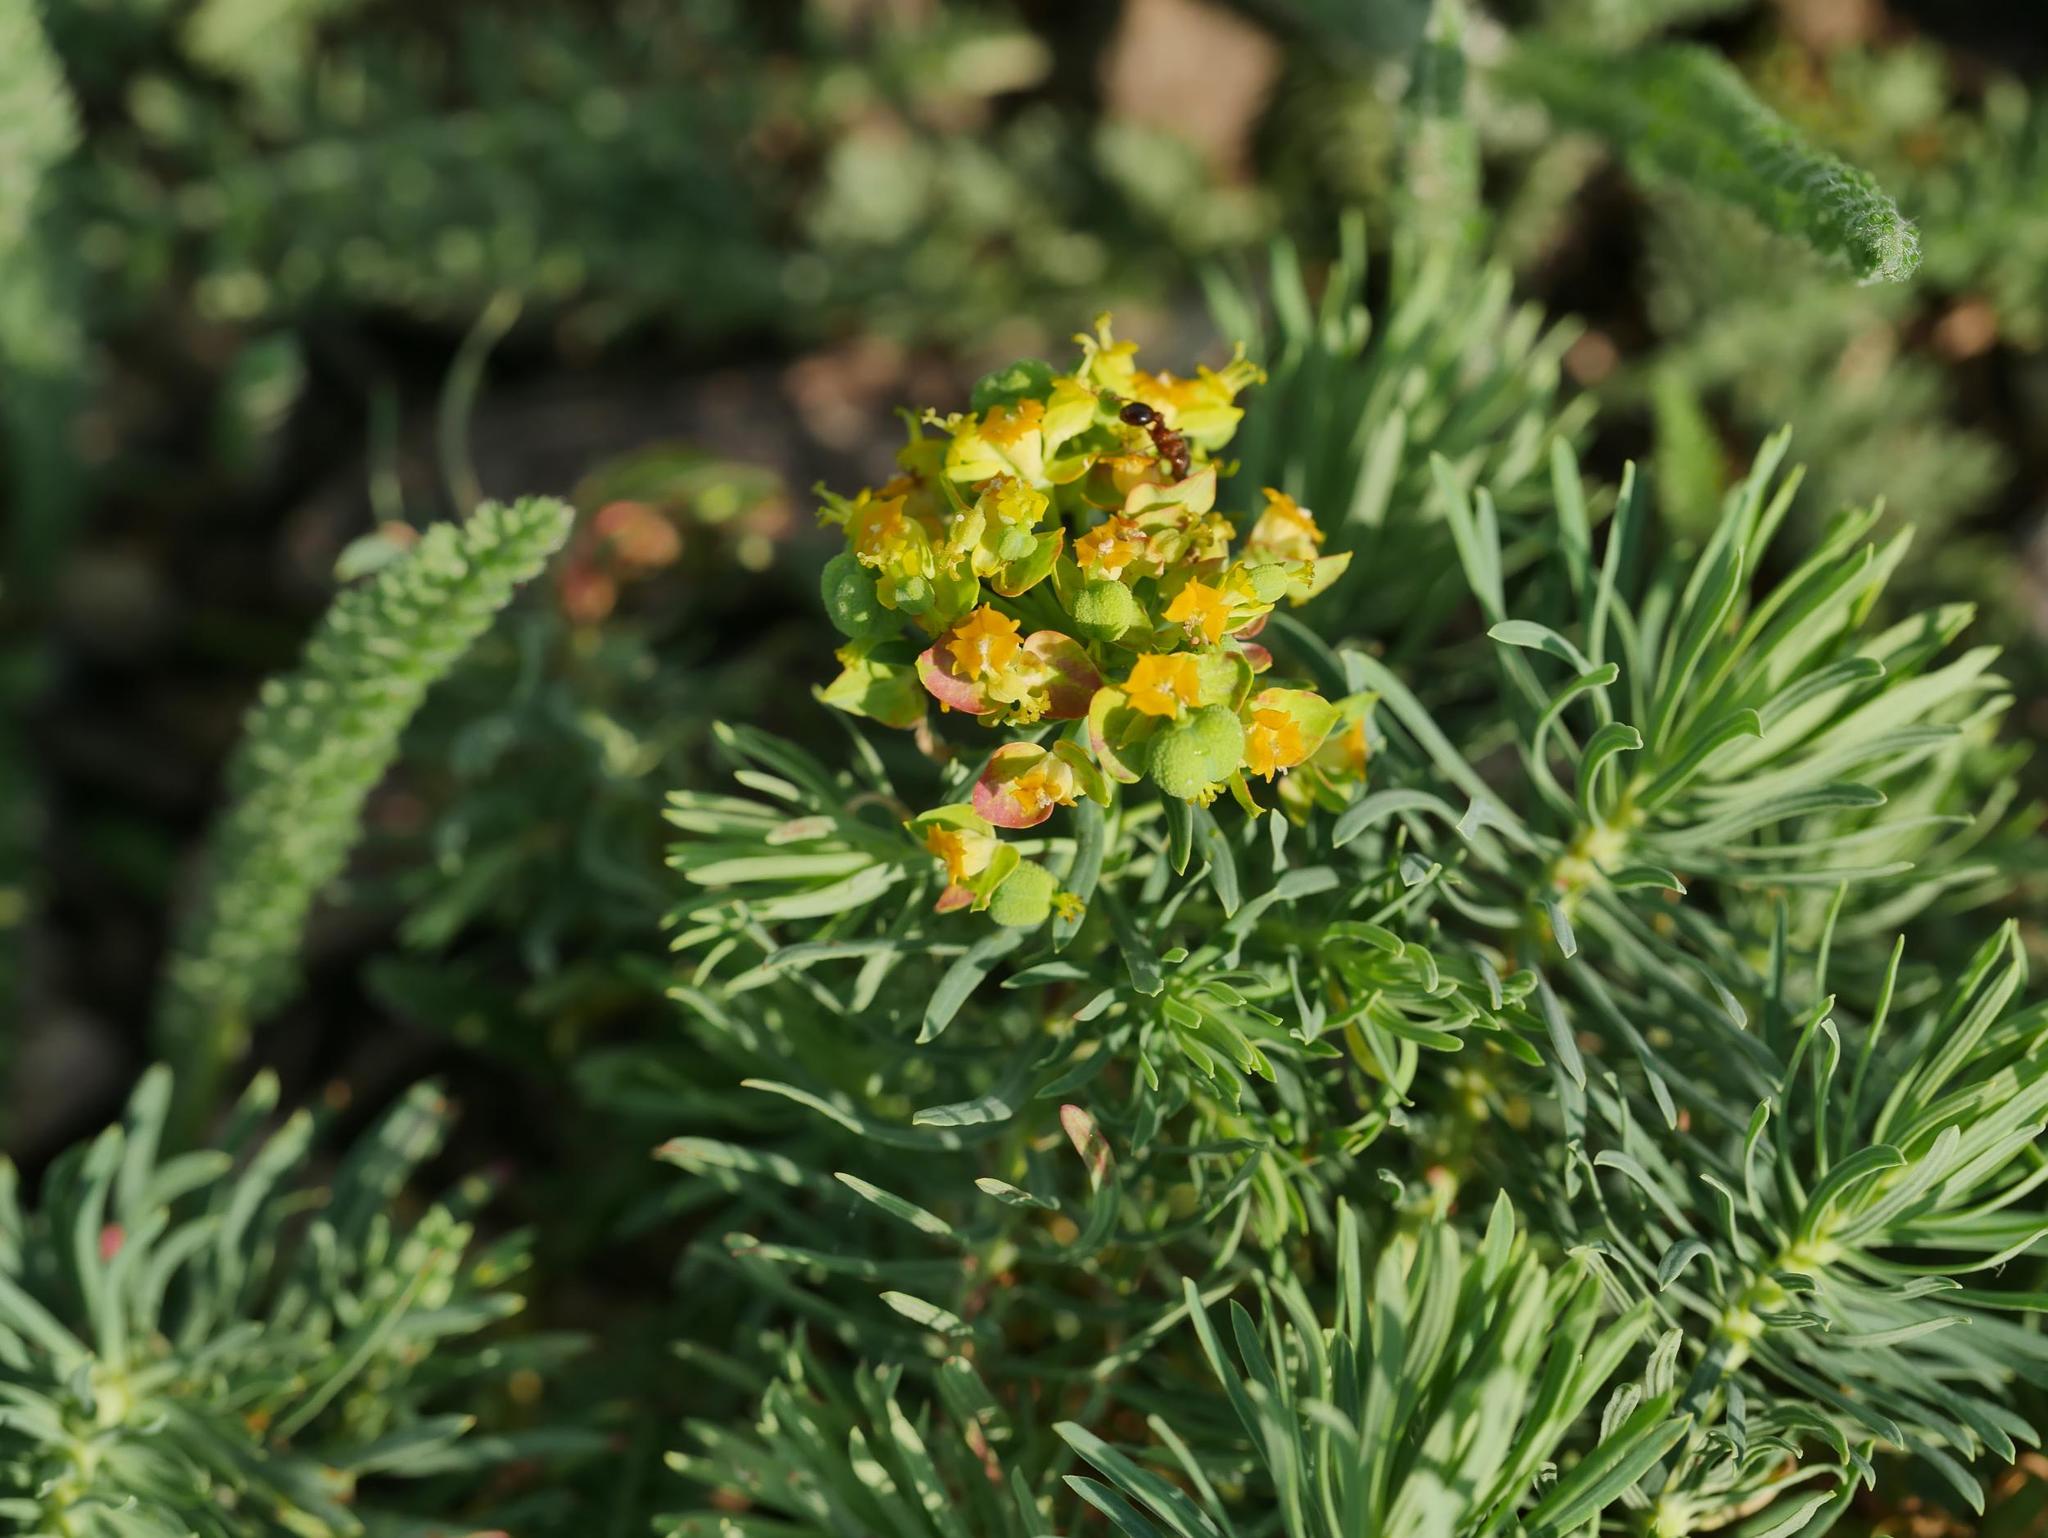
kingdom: Plantae
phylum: Tracheophyta
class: Magnoliopsida
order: Malpighiales
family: Euphorbiaceae
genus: Euphorbia
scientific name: Euphorbia cyparissias
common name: Cypress spurge
